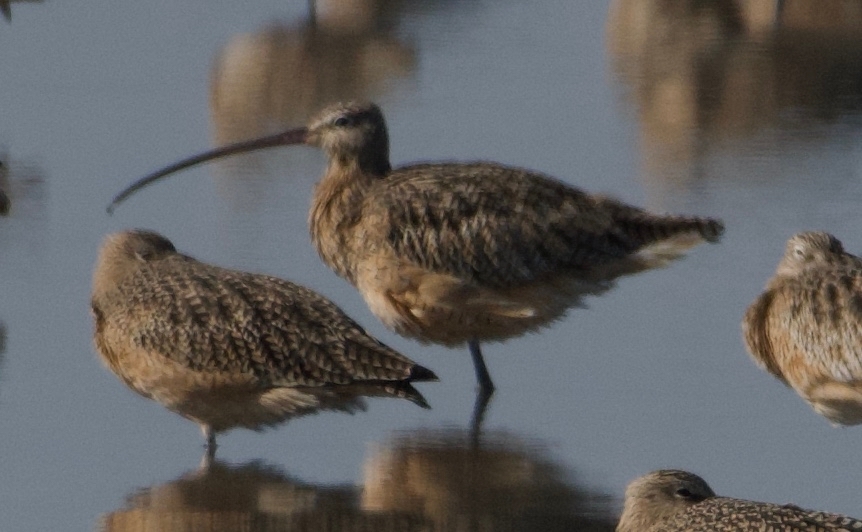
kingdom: Animalia
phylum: Chordata
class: Aves
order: Charadriiformes
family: Scolopacidae
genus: Numenius
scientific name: Numenius americanus
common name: Long-billed curlew
